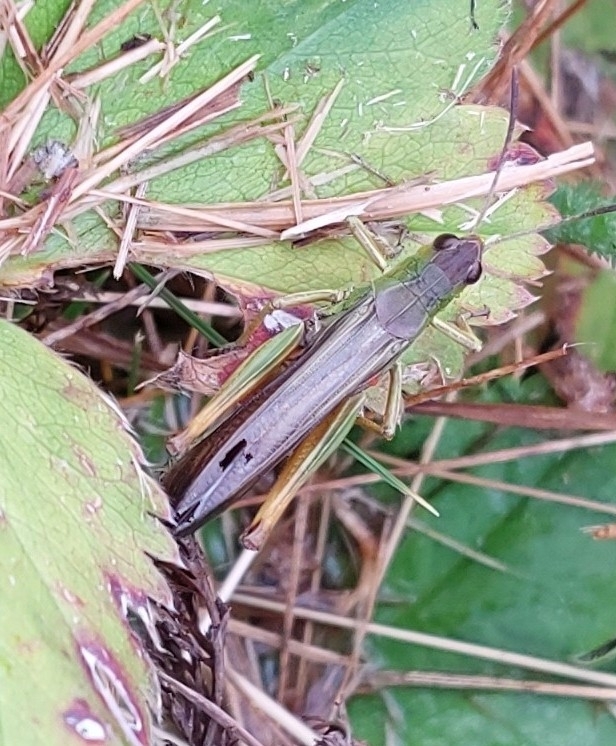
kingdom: Animalia
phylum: Arthropoda
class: Insecta
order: Orthoptera
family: Acrididae
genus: Stauroderus
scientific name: Stauroderus scalaris
